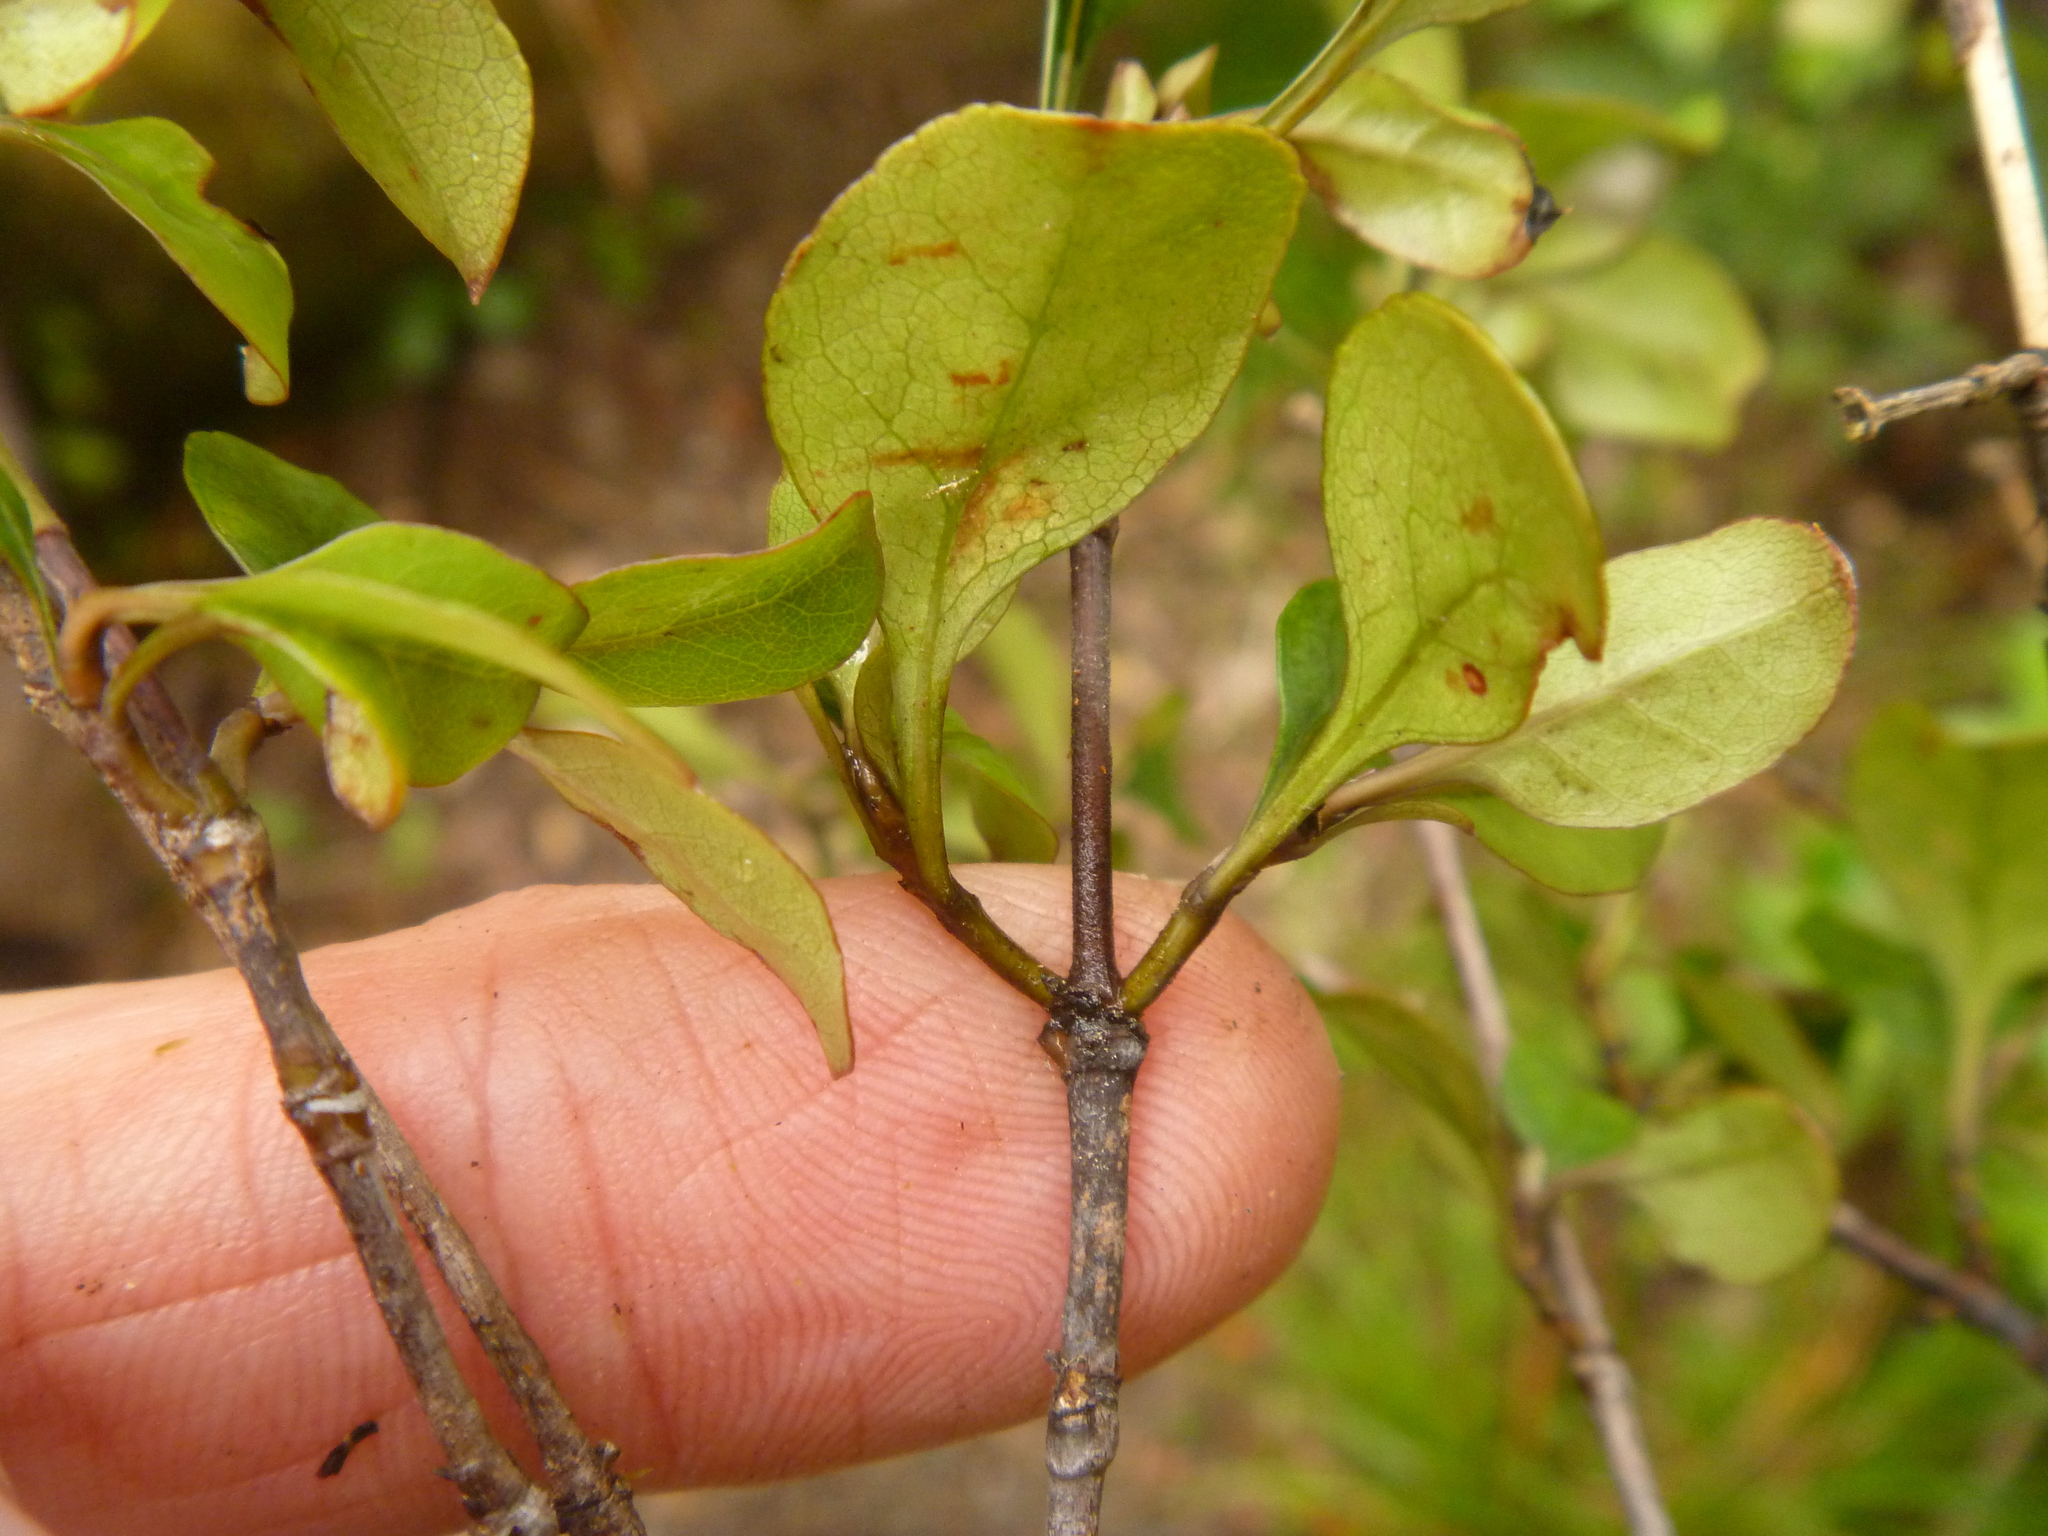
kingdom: Plantae
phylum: Tracheophyta
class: Magnoliopsida
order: Gentianales
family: Rubiaceae
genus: Coprosma
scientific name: Coprosma arborea
